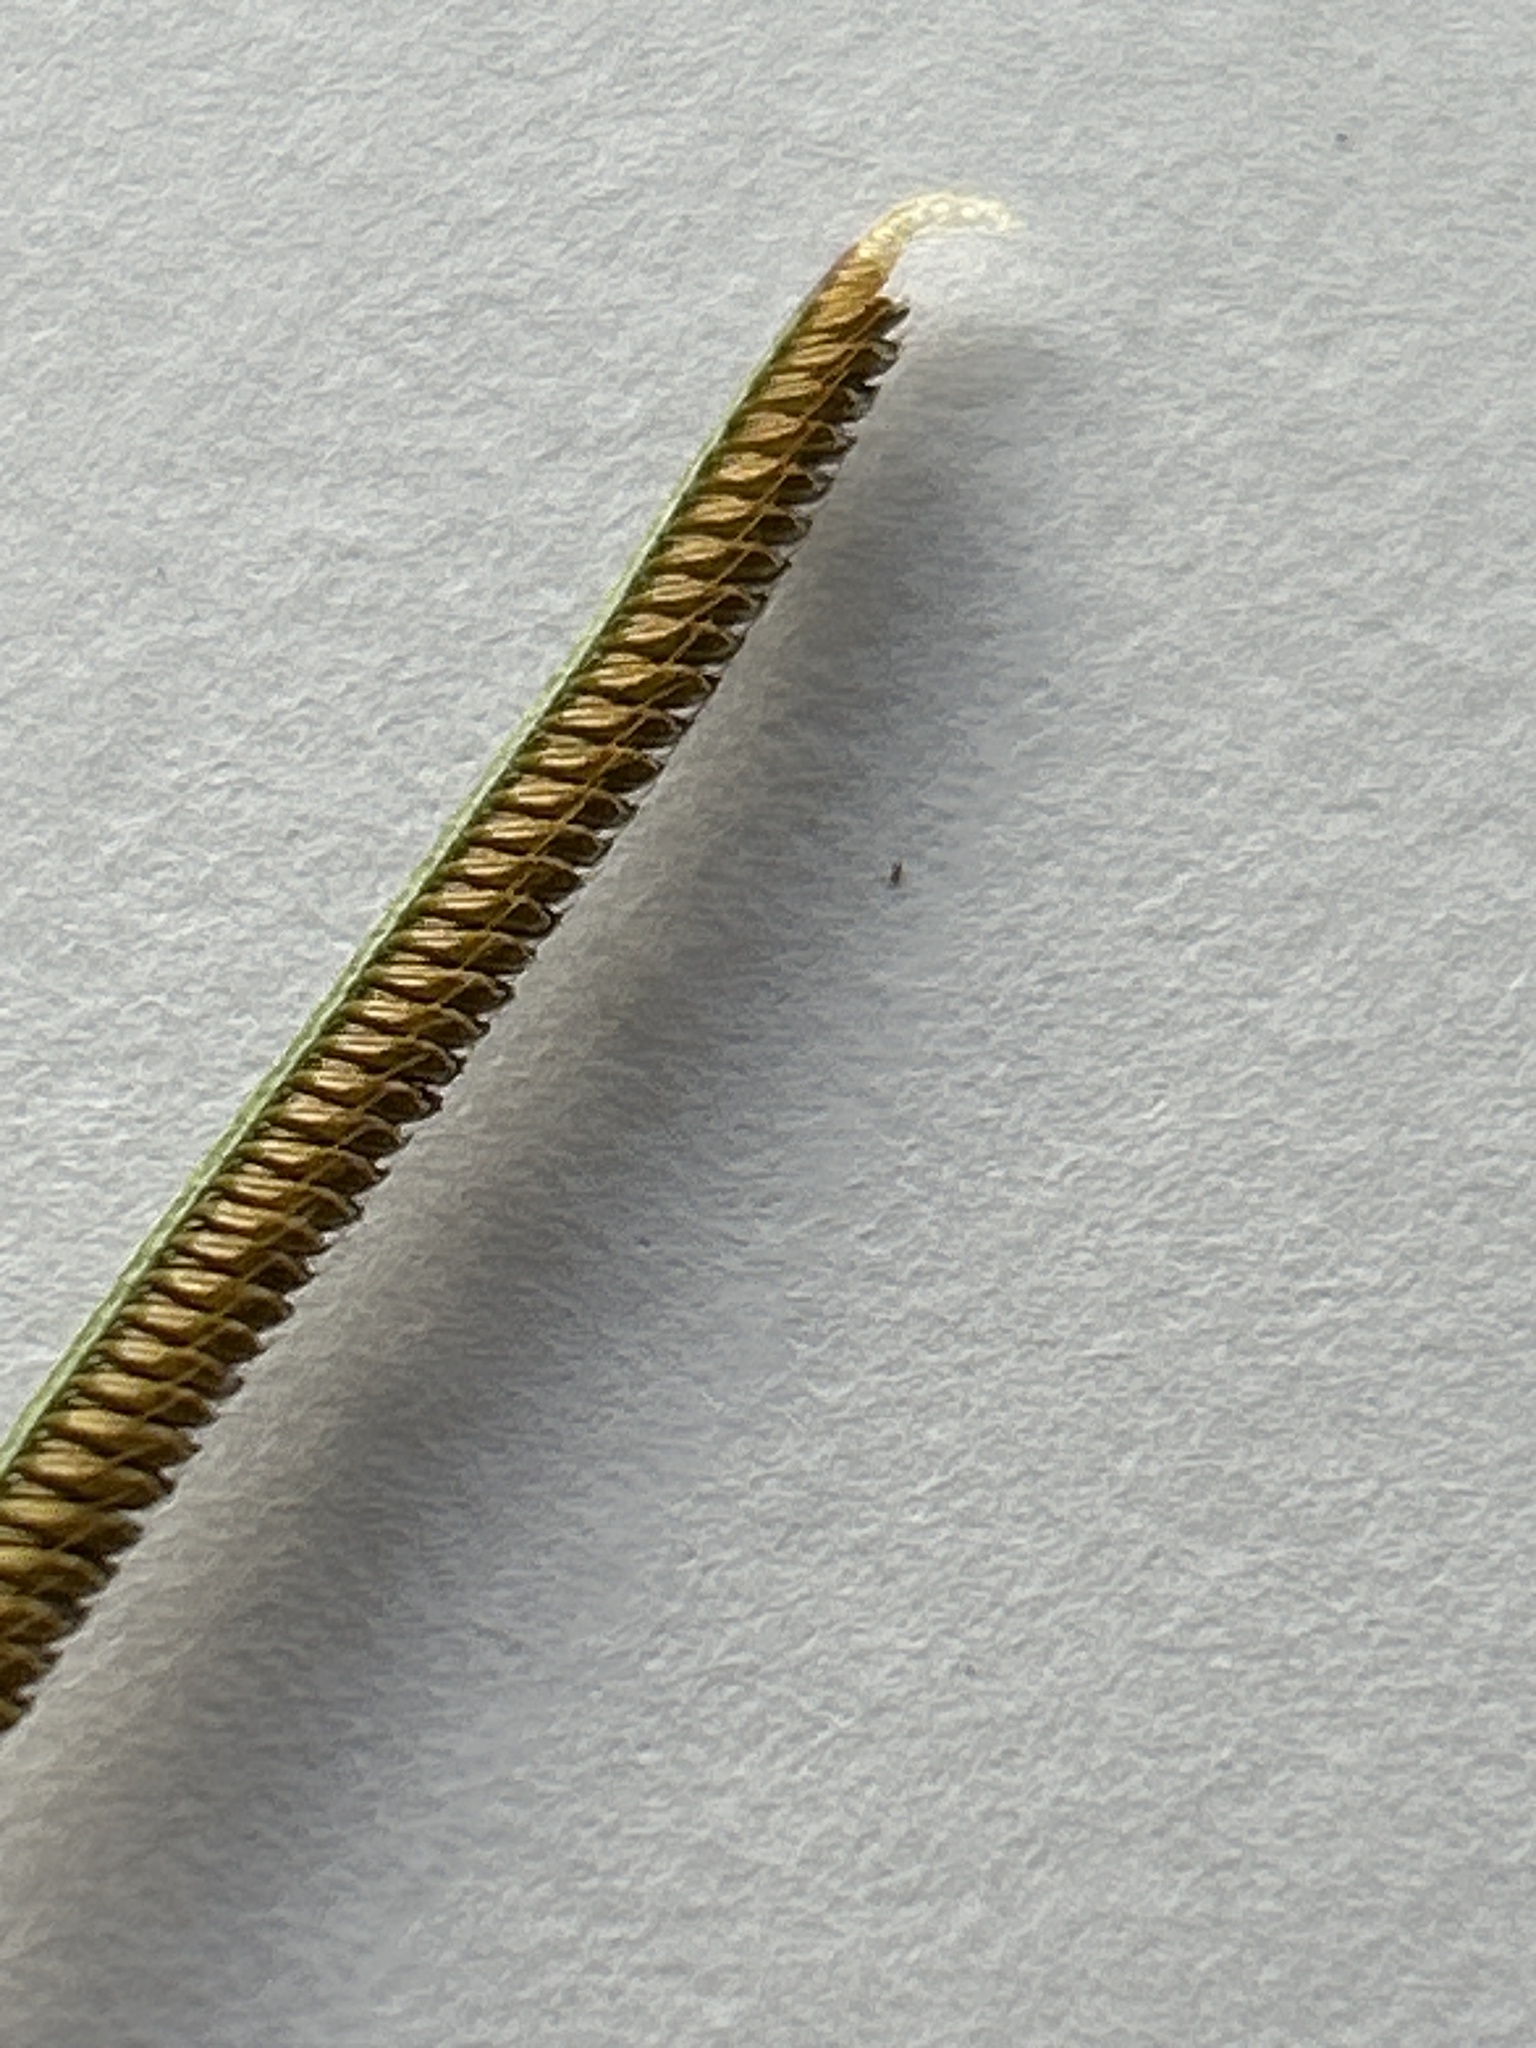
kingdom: Plantae
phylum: Tracheophyta
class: Liliopsida
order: Poales
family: Poaceae
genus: Cynodon
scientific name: Cynodon dactylon
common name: Bermuda grass
